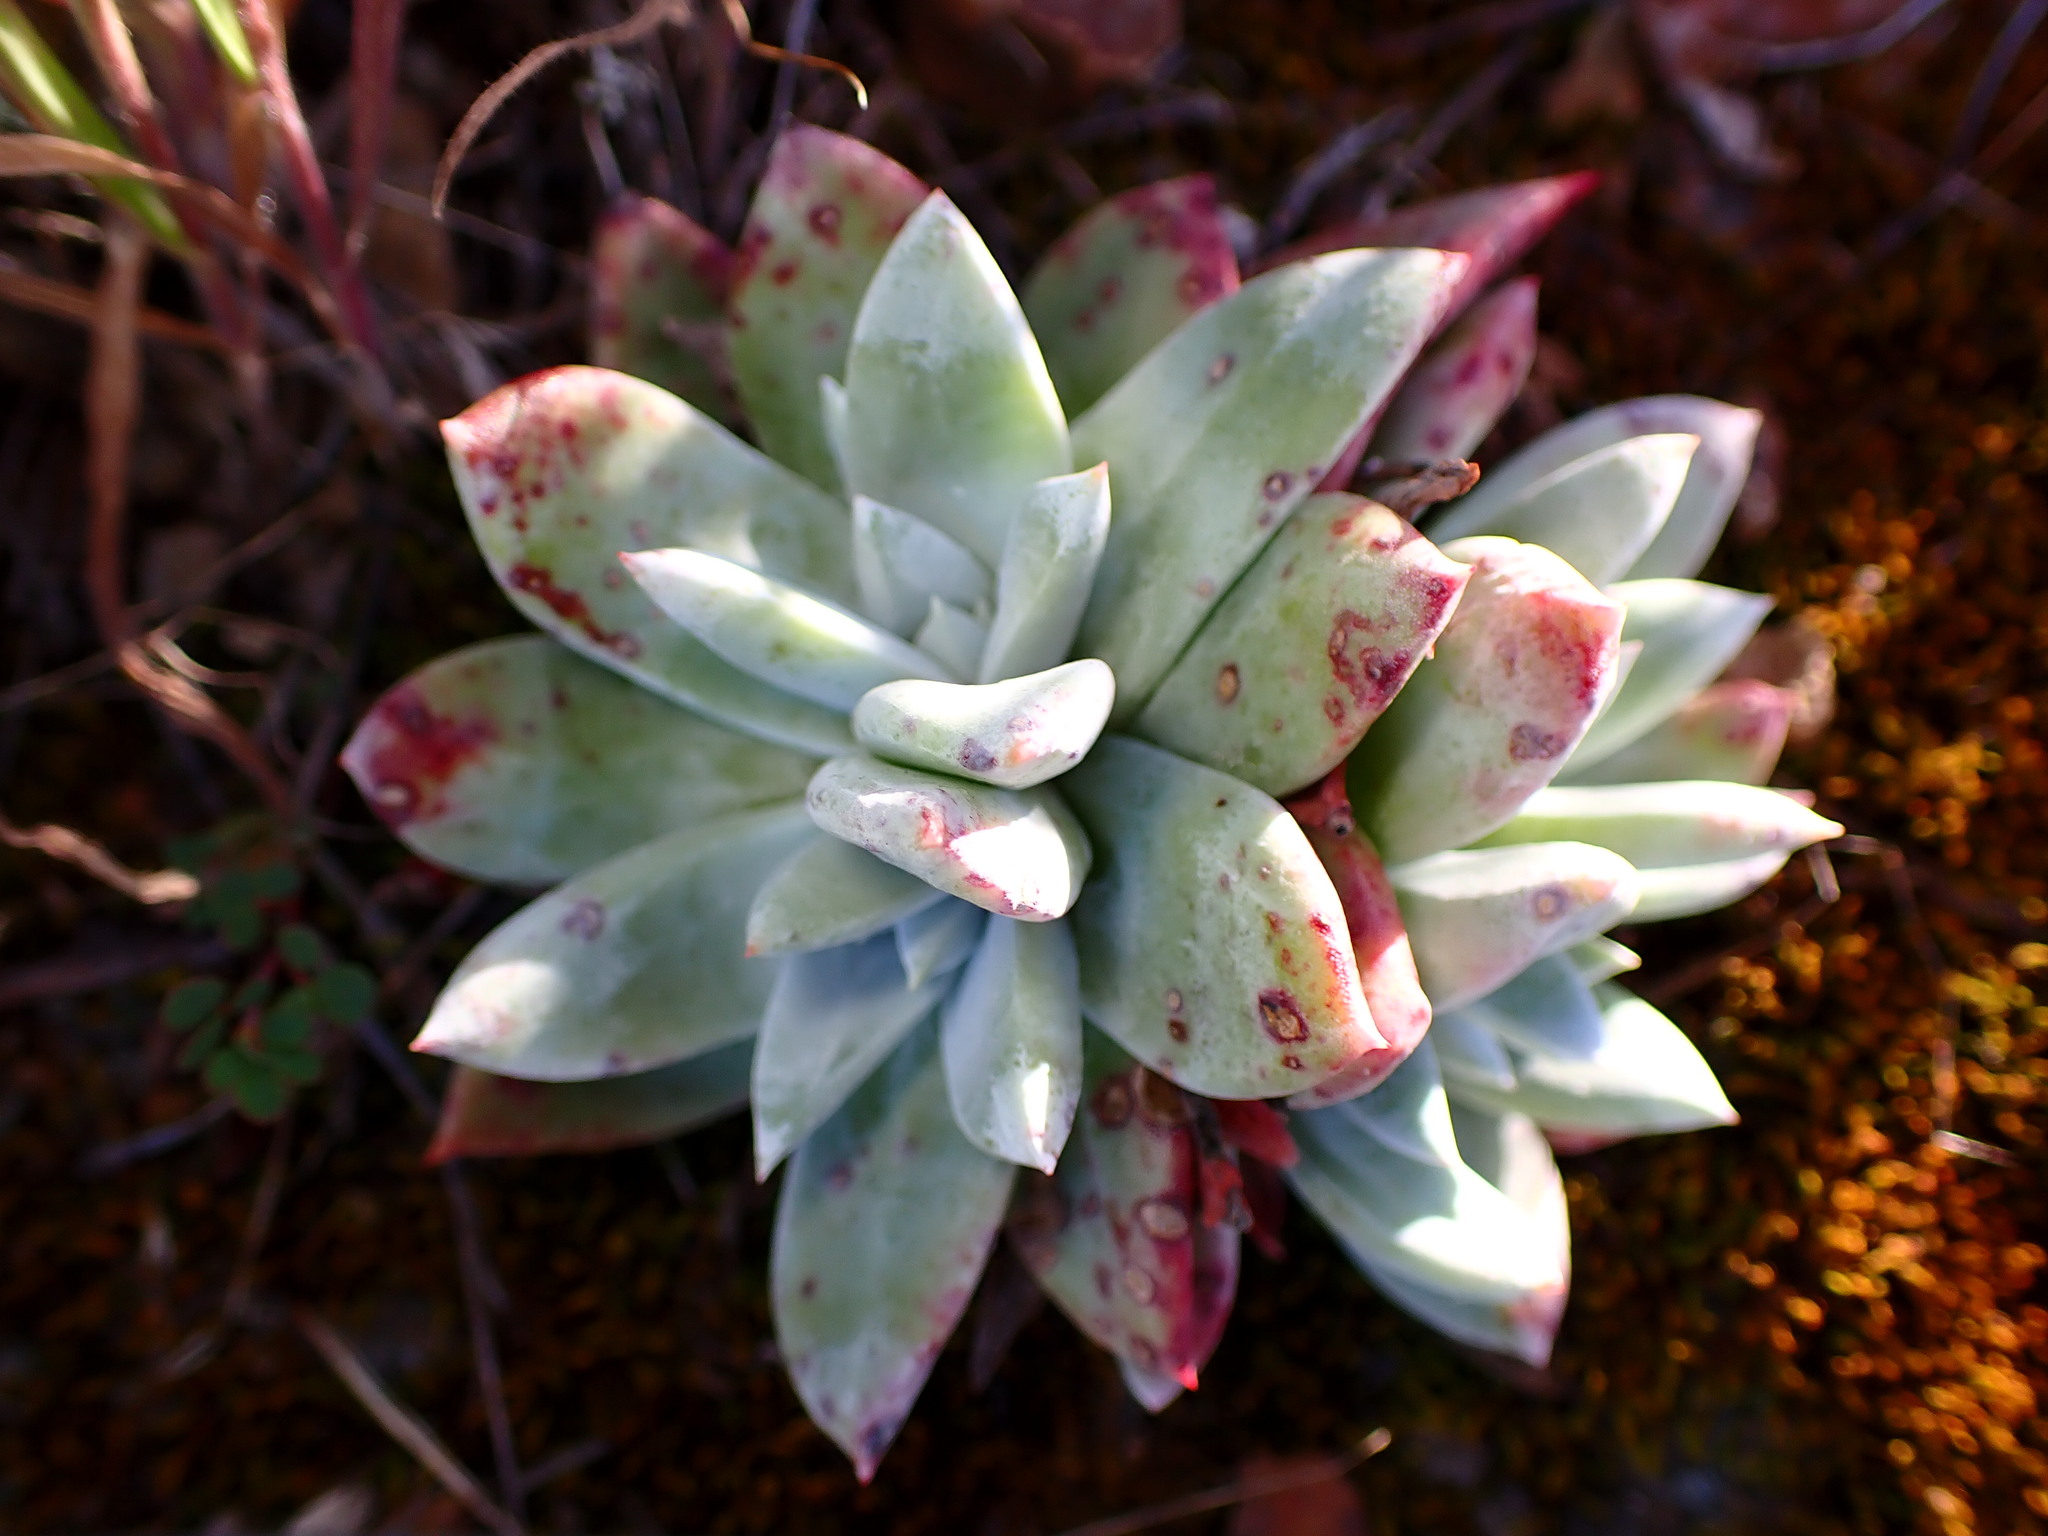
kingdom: Plantae
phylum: Tracheophyta
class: Magnoliopsida
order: Saxifragales
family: Crassulaceae
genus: Dudleya
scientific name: Dudleya farinosa
